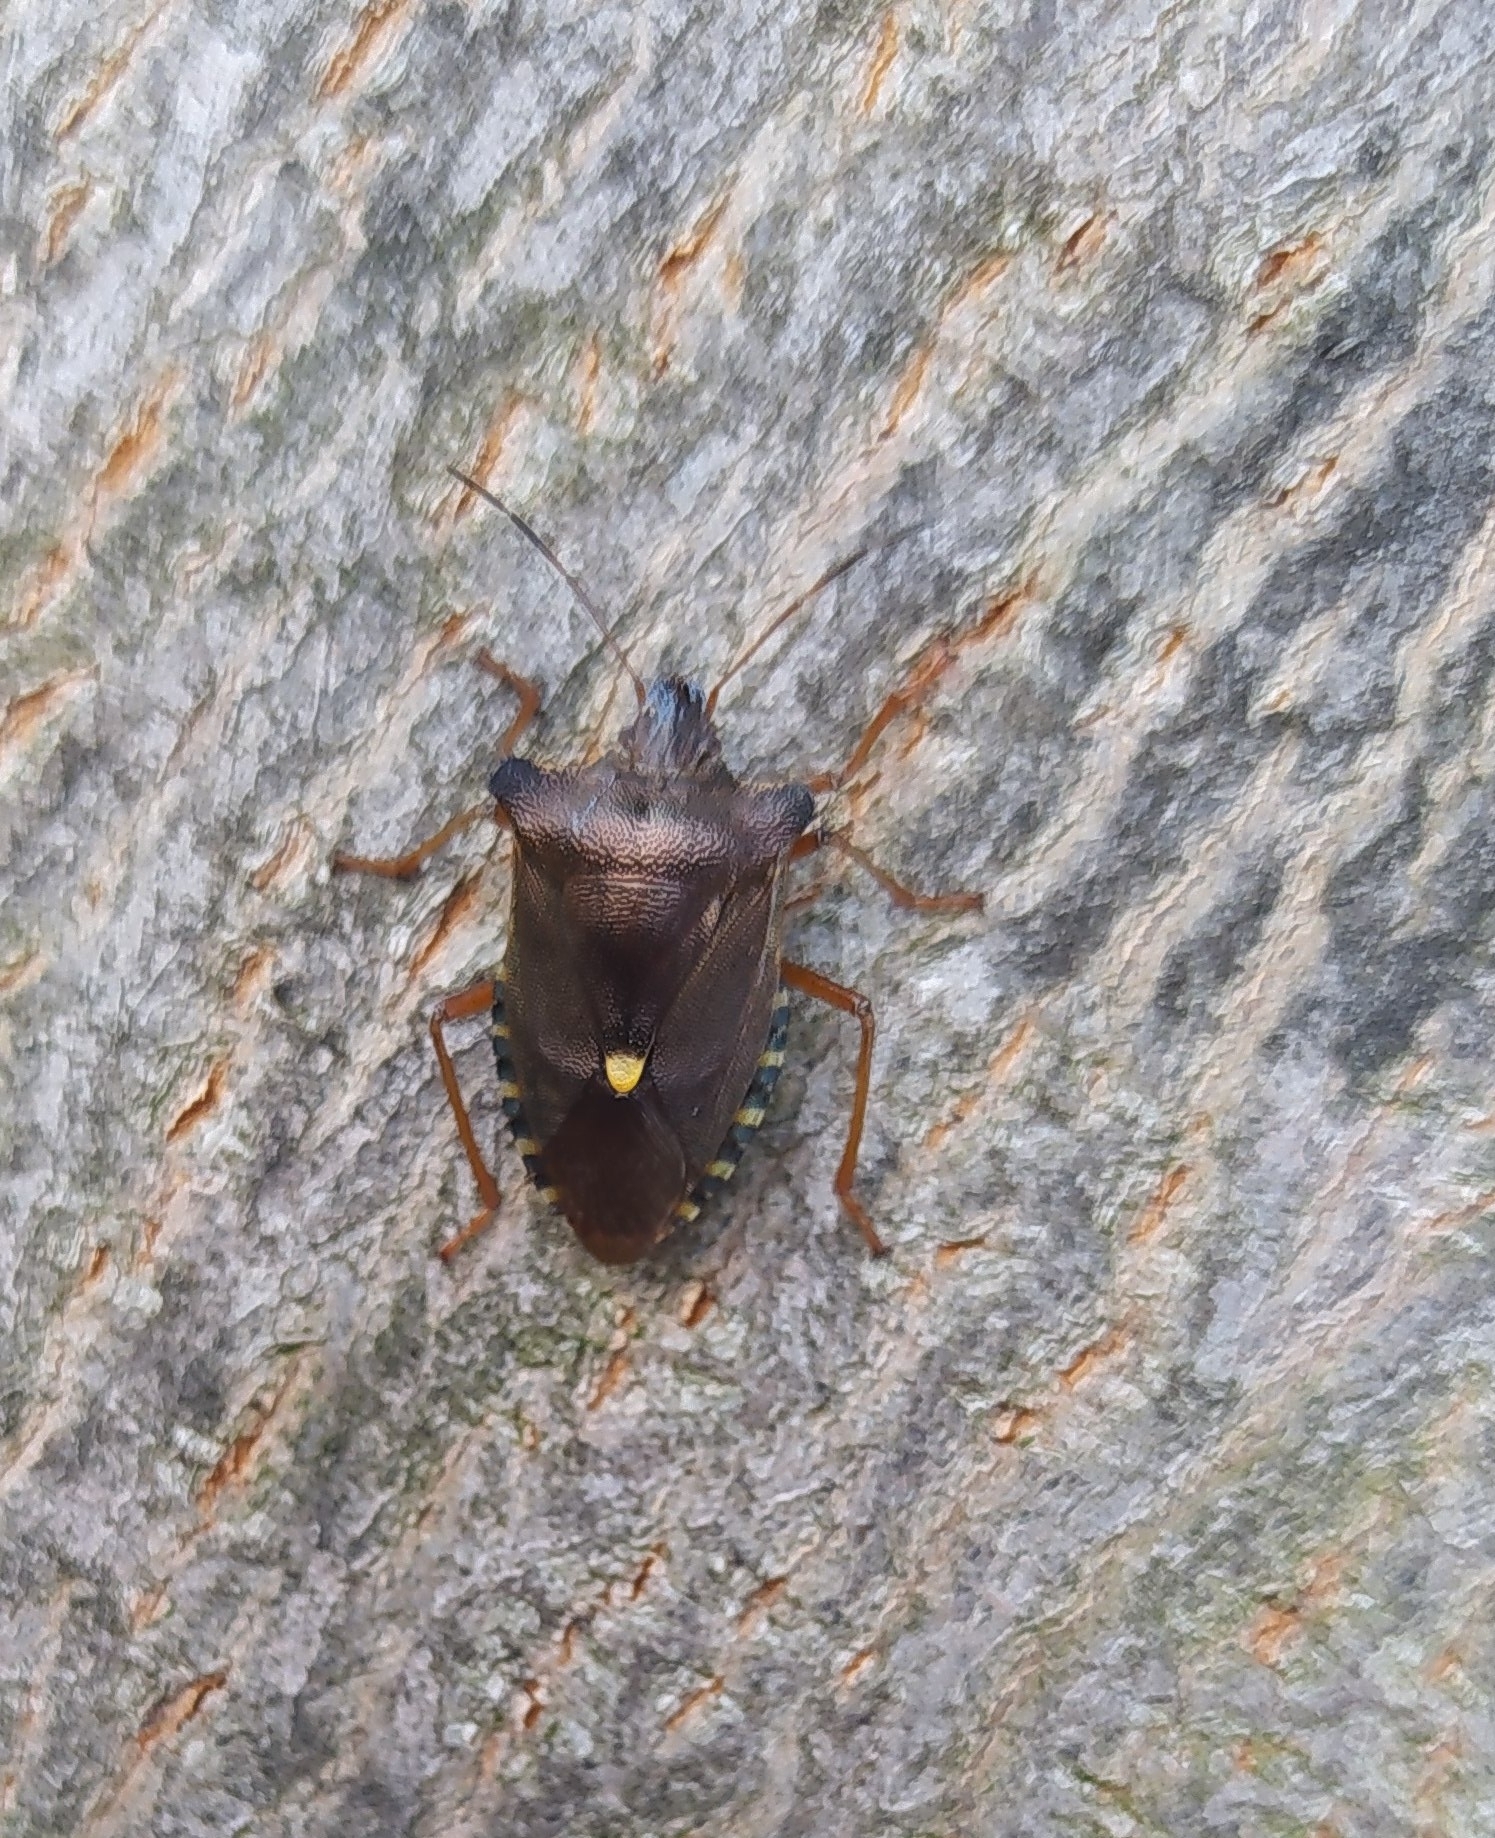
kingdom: Animalia
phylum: Arthropoda
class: Insecta
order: Hemiptera
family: Pentatomidae
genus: Pentatoma
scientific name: Pentatoma rufipes
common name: Forest bug
